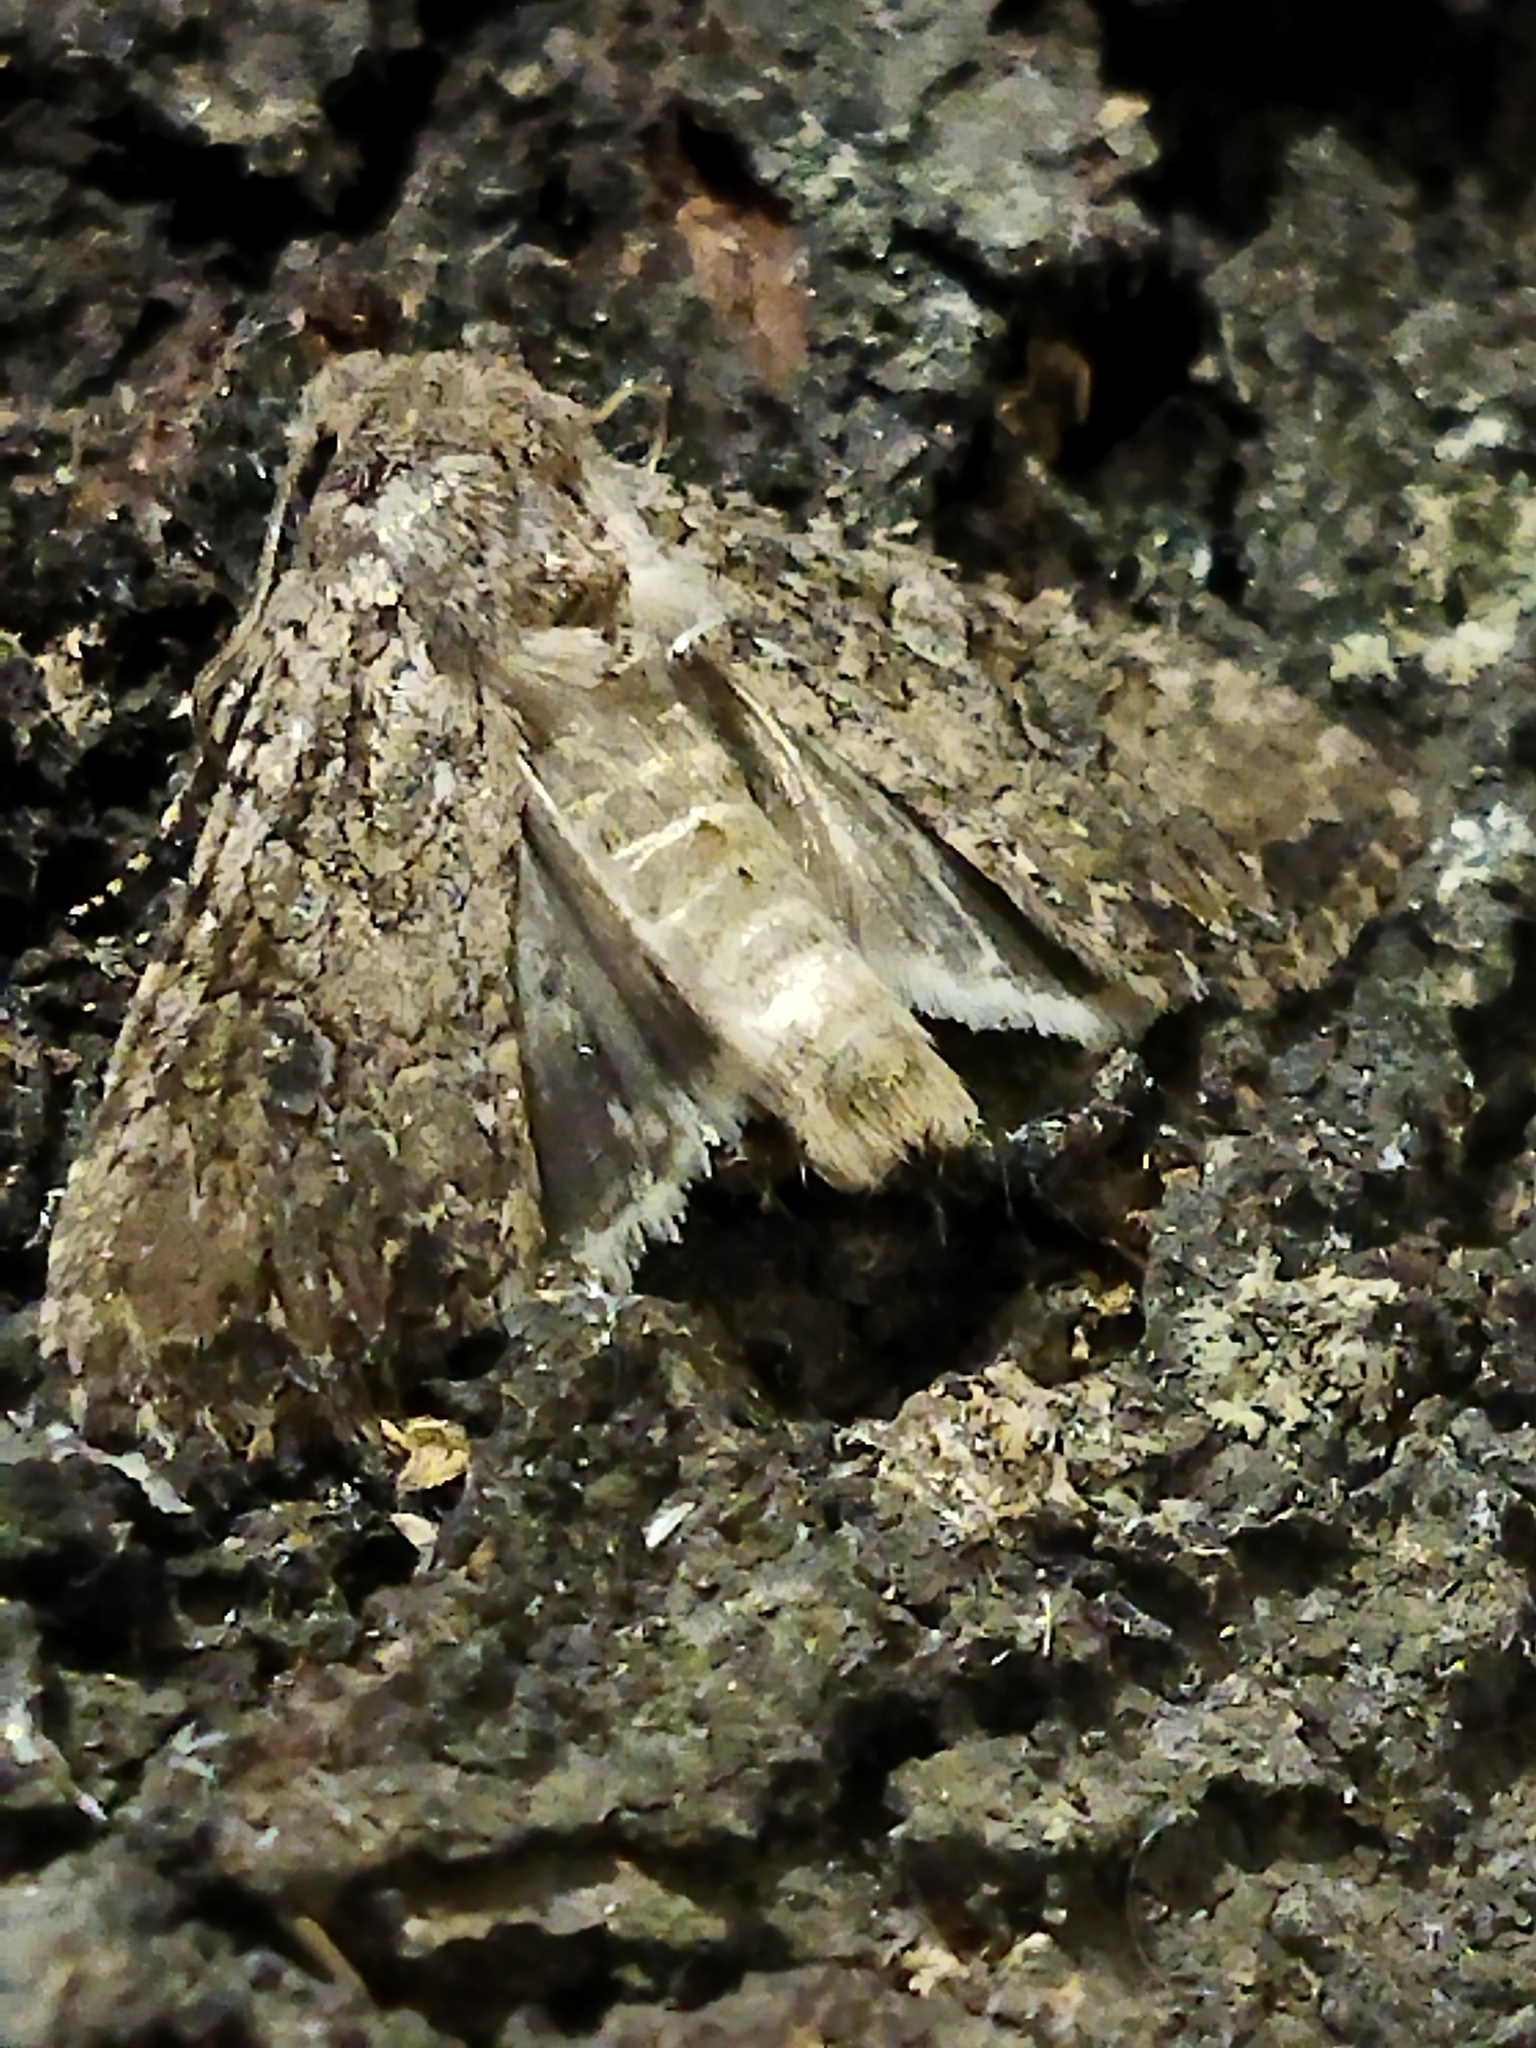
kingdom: Animalia
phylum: Arthropoda
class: Insecta
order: Lepidoptera
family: Noctuidae
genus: Anarta
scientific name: Anarta trifolii
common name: Clover cutworm moth
